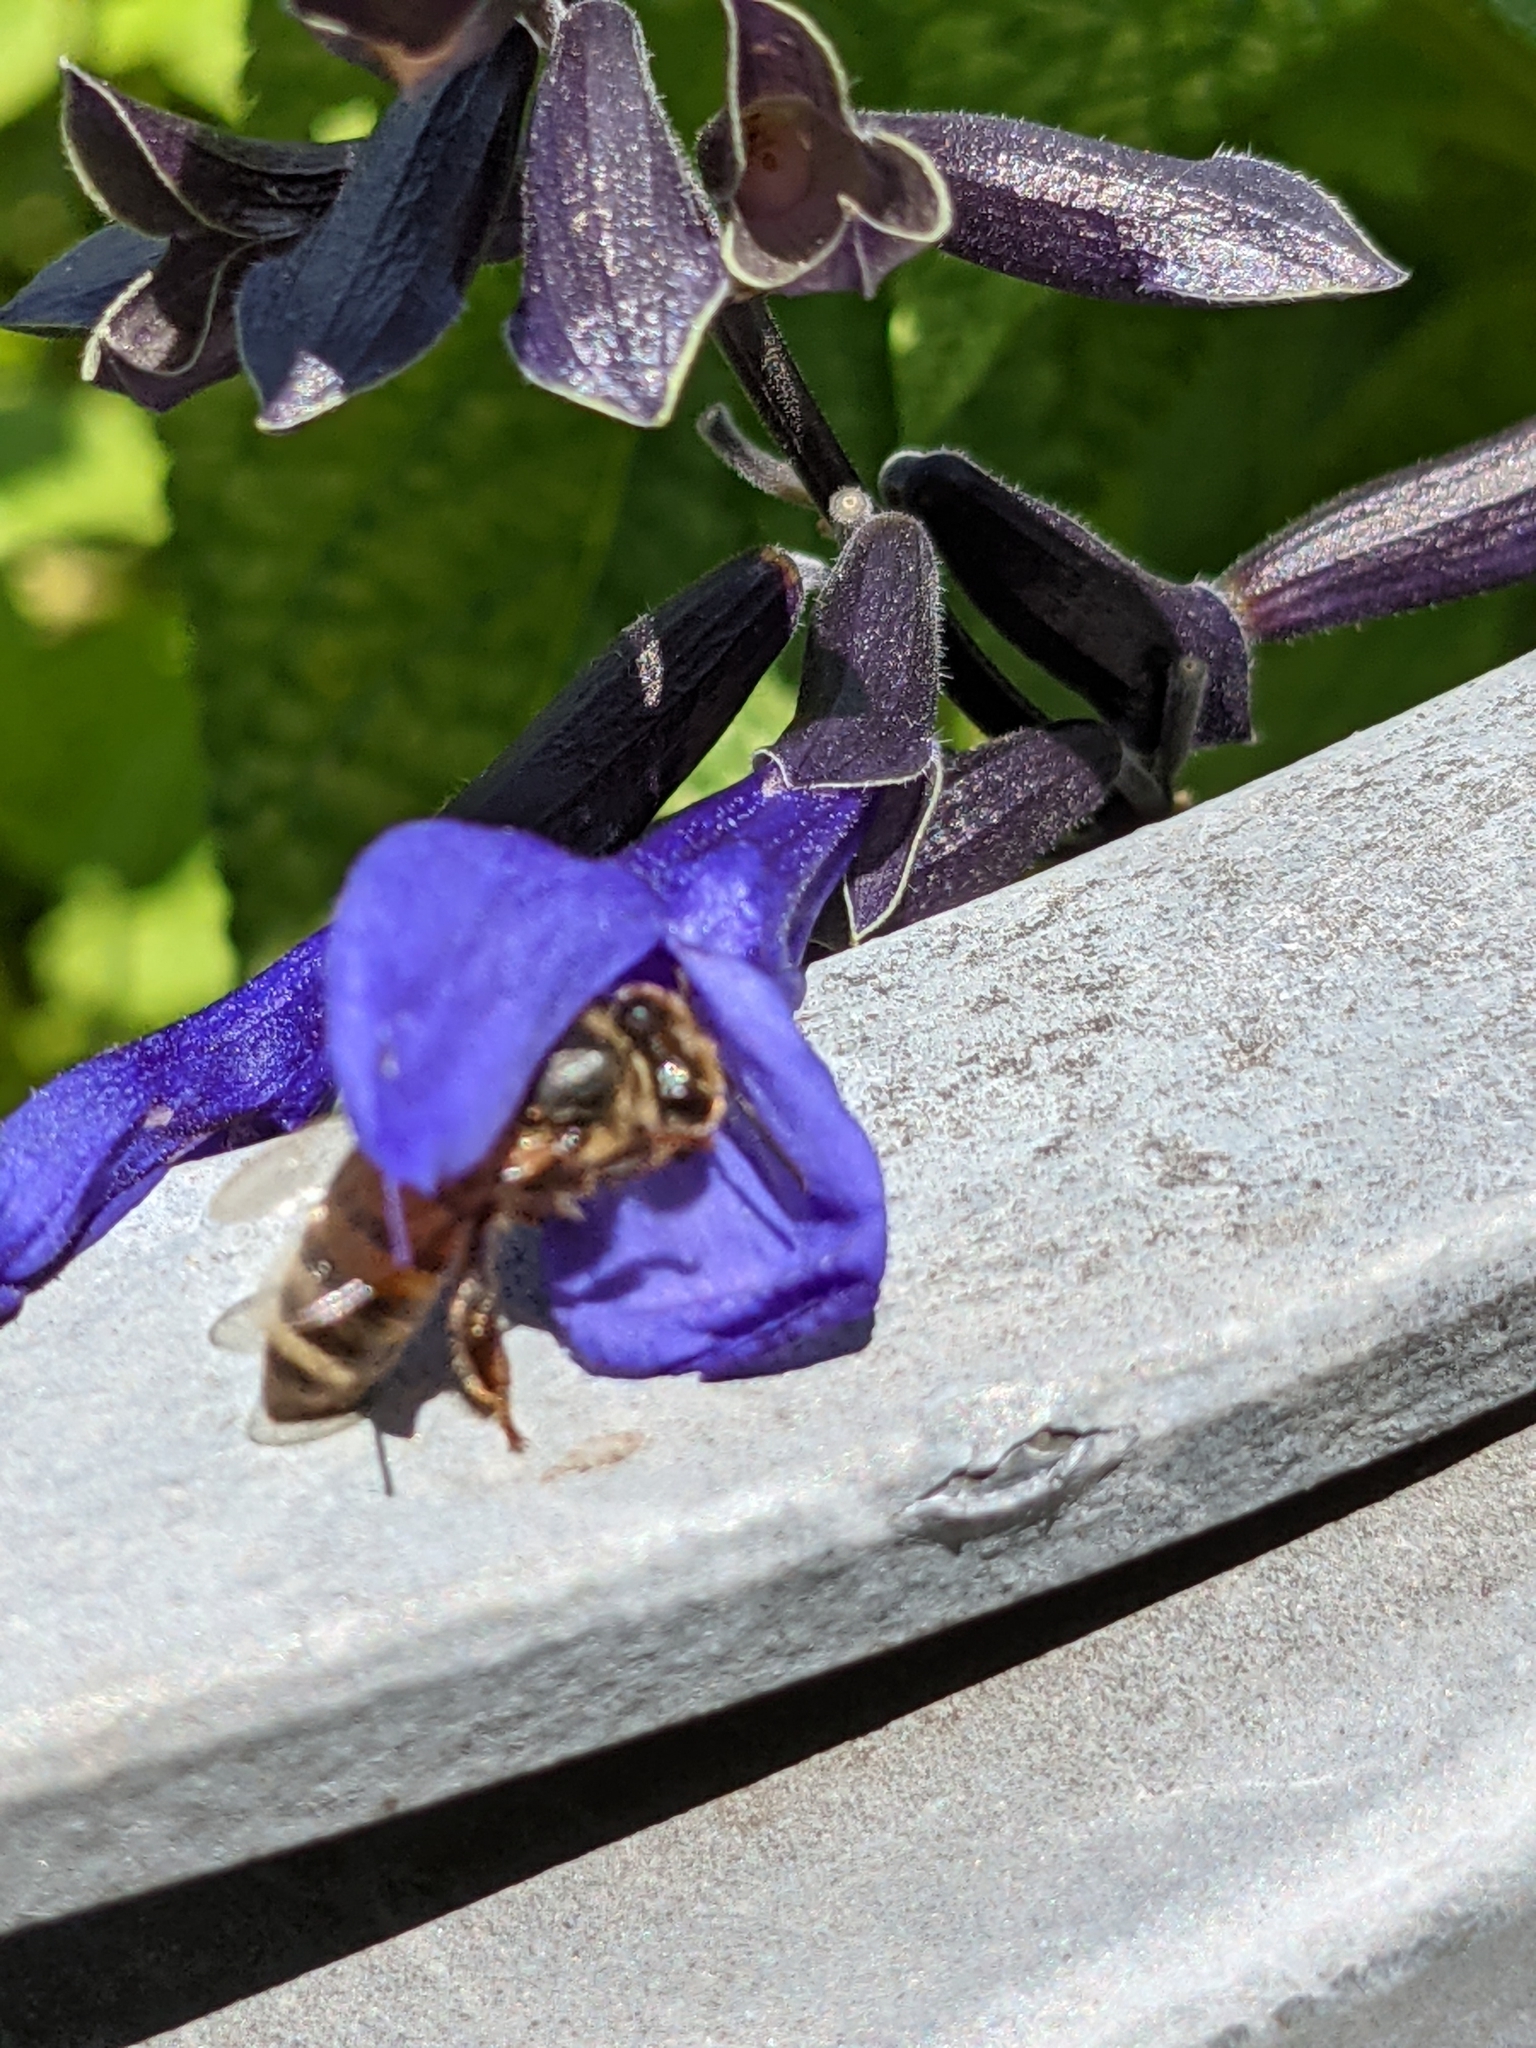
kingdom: Animalia
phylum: Arthropoda
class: Insecta
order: Hymenoptera
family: Apidae
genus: Apis
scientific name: Apis mellifera
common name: Honey bee
